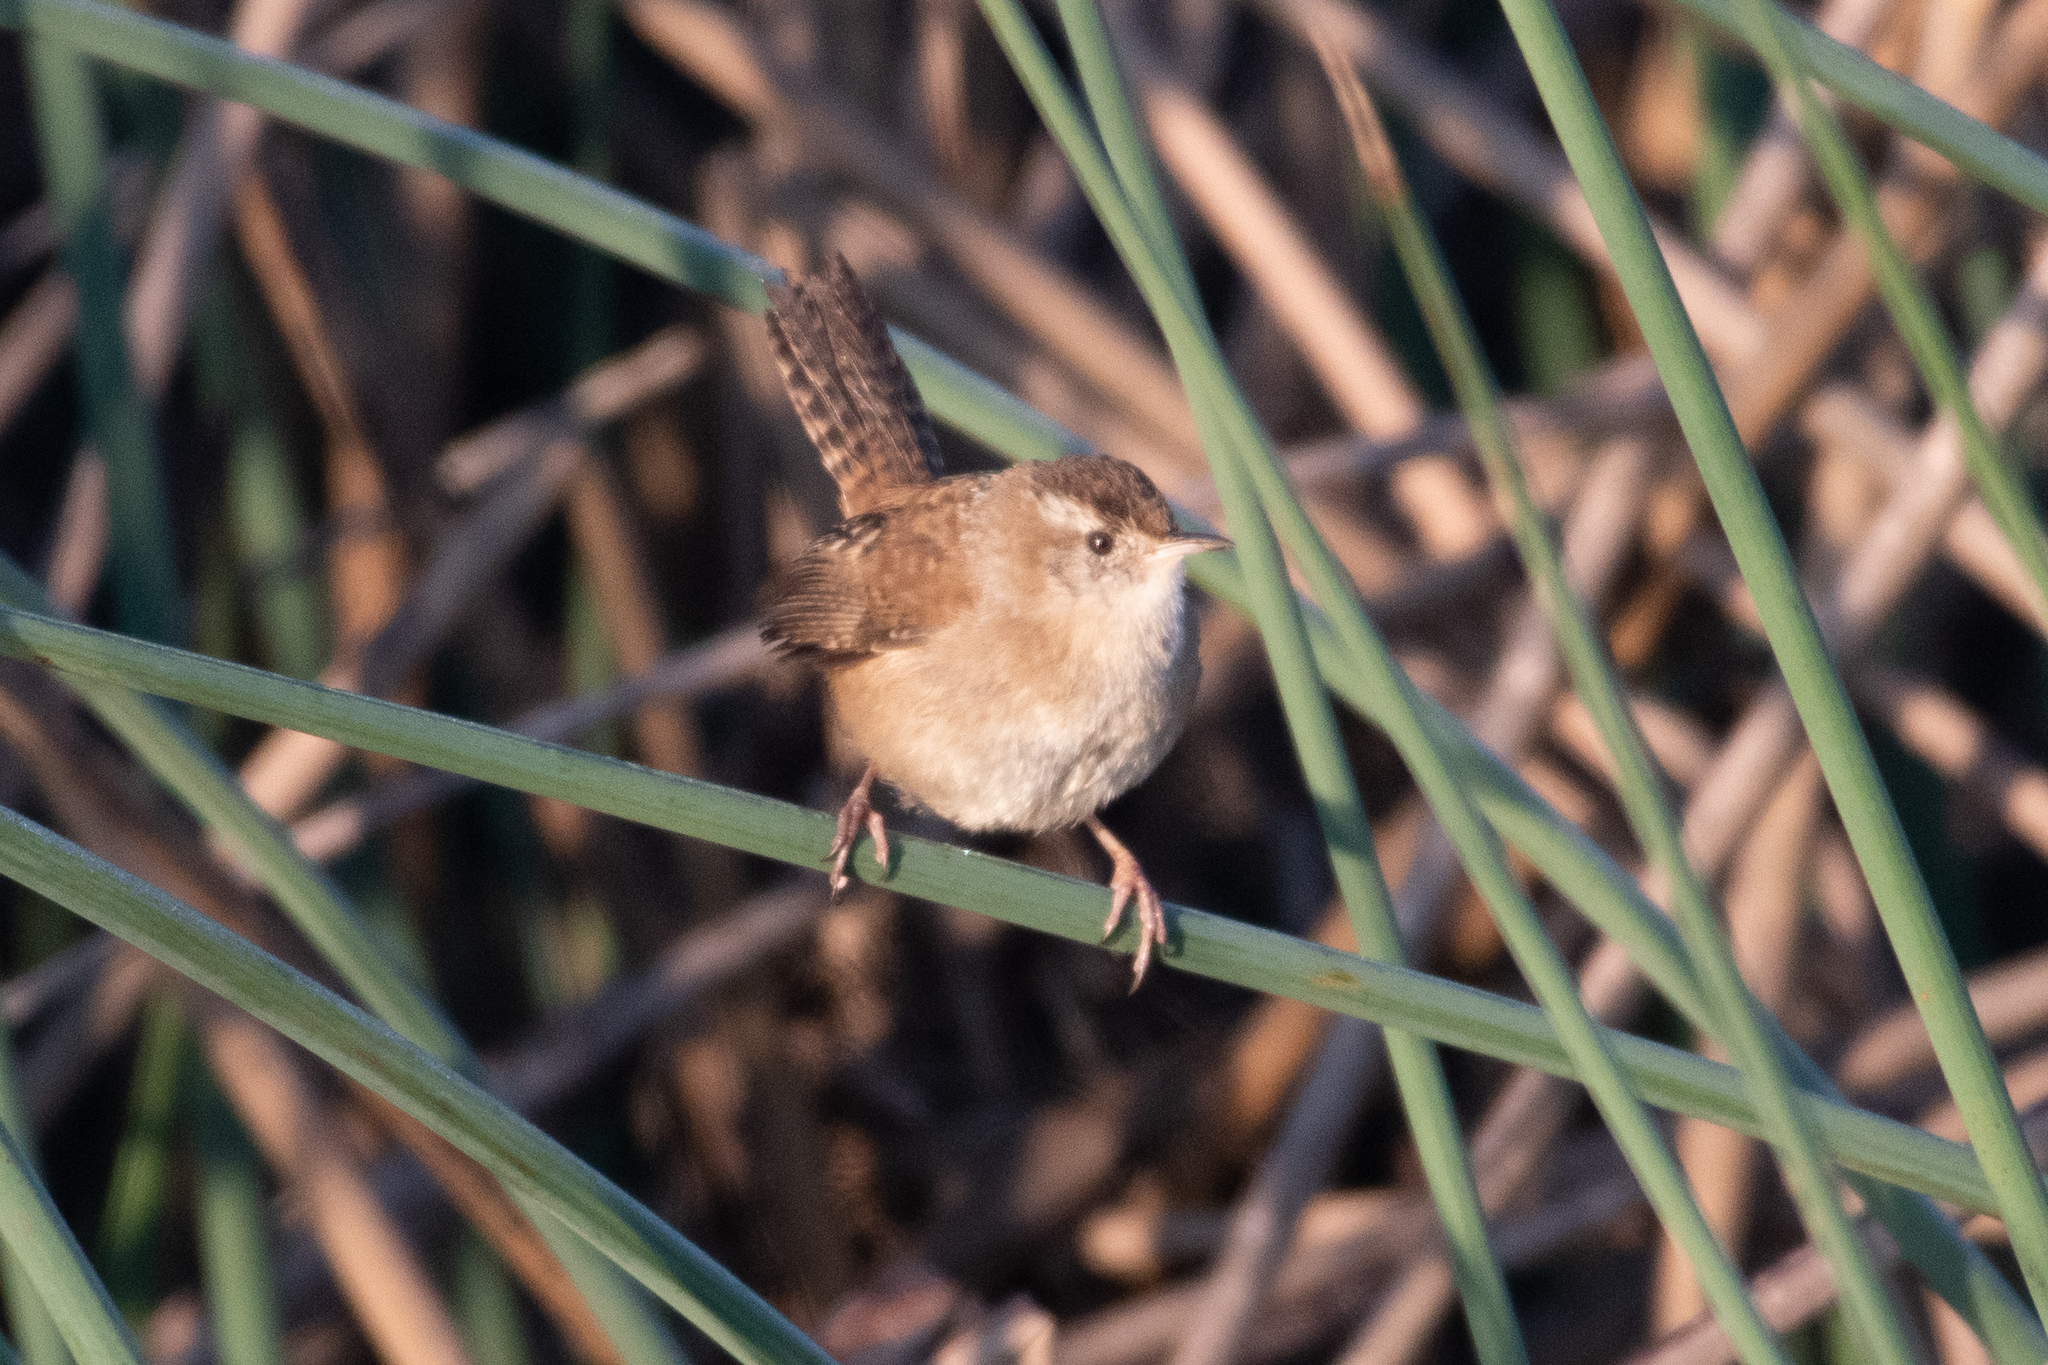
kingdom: Animalia
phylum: Chordata
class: Aves
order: Passeriformes
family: Troglodytidae
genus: Cistothorus
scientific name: Cistothorus palustris
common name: Marsh wren
